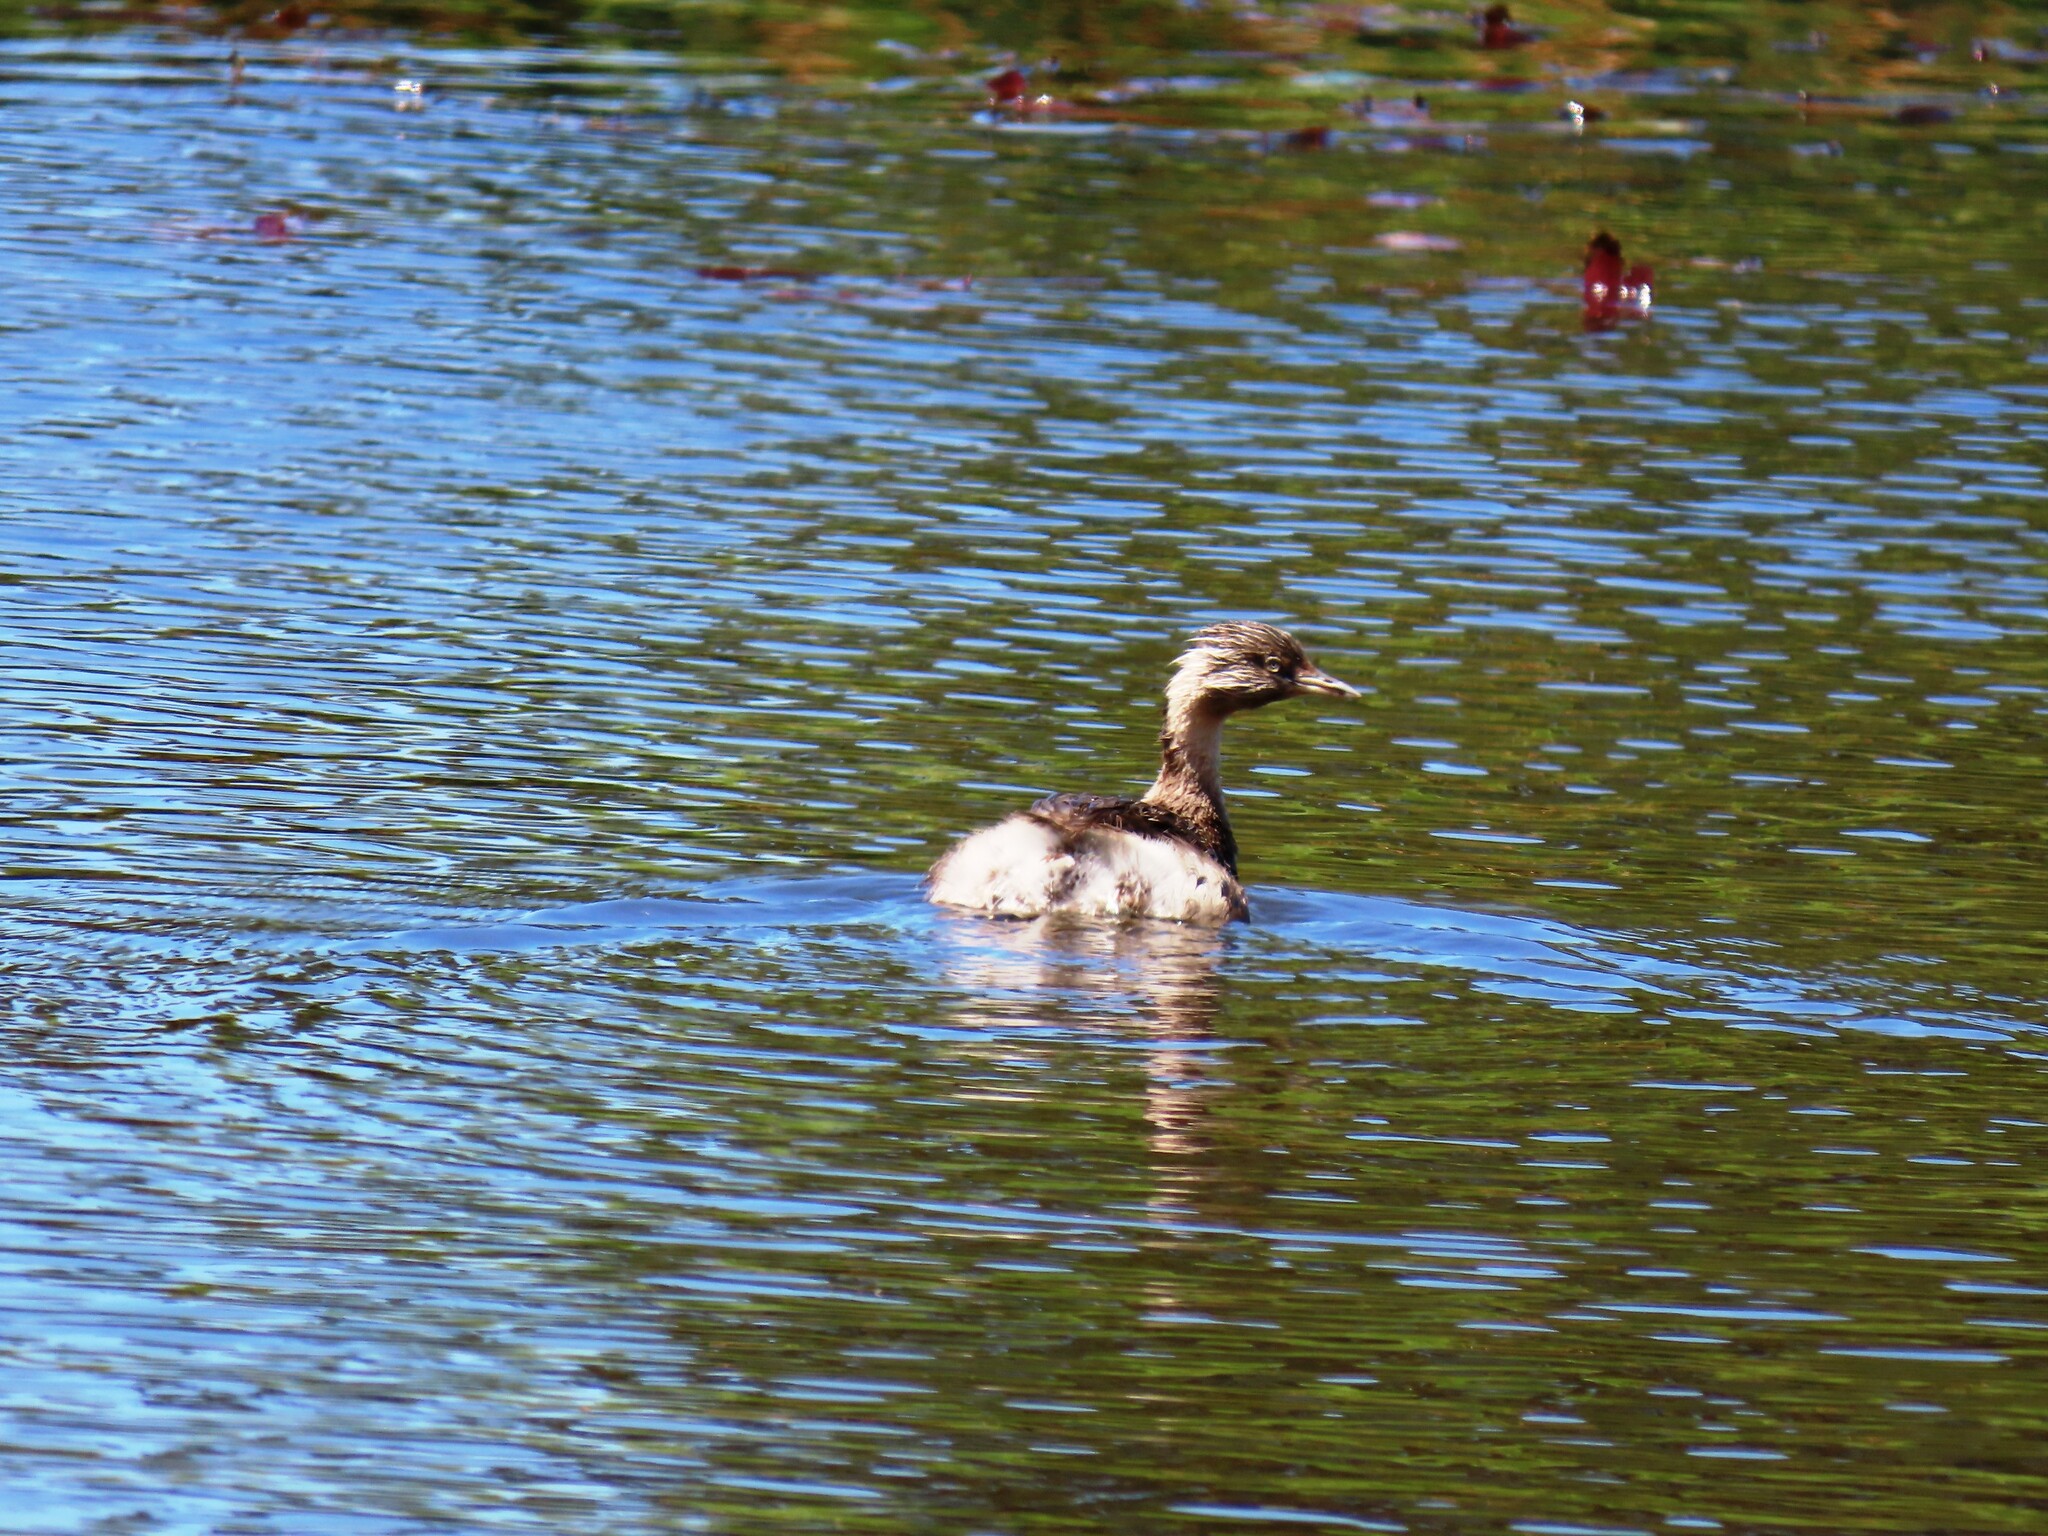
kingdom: Animalia
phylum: Chordata
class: Aves
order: Podicipediformes
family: Podicipedidae
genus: Poliocephalus
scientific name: Poliocephalus poliocephalus
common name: Hoary-headed grebe
